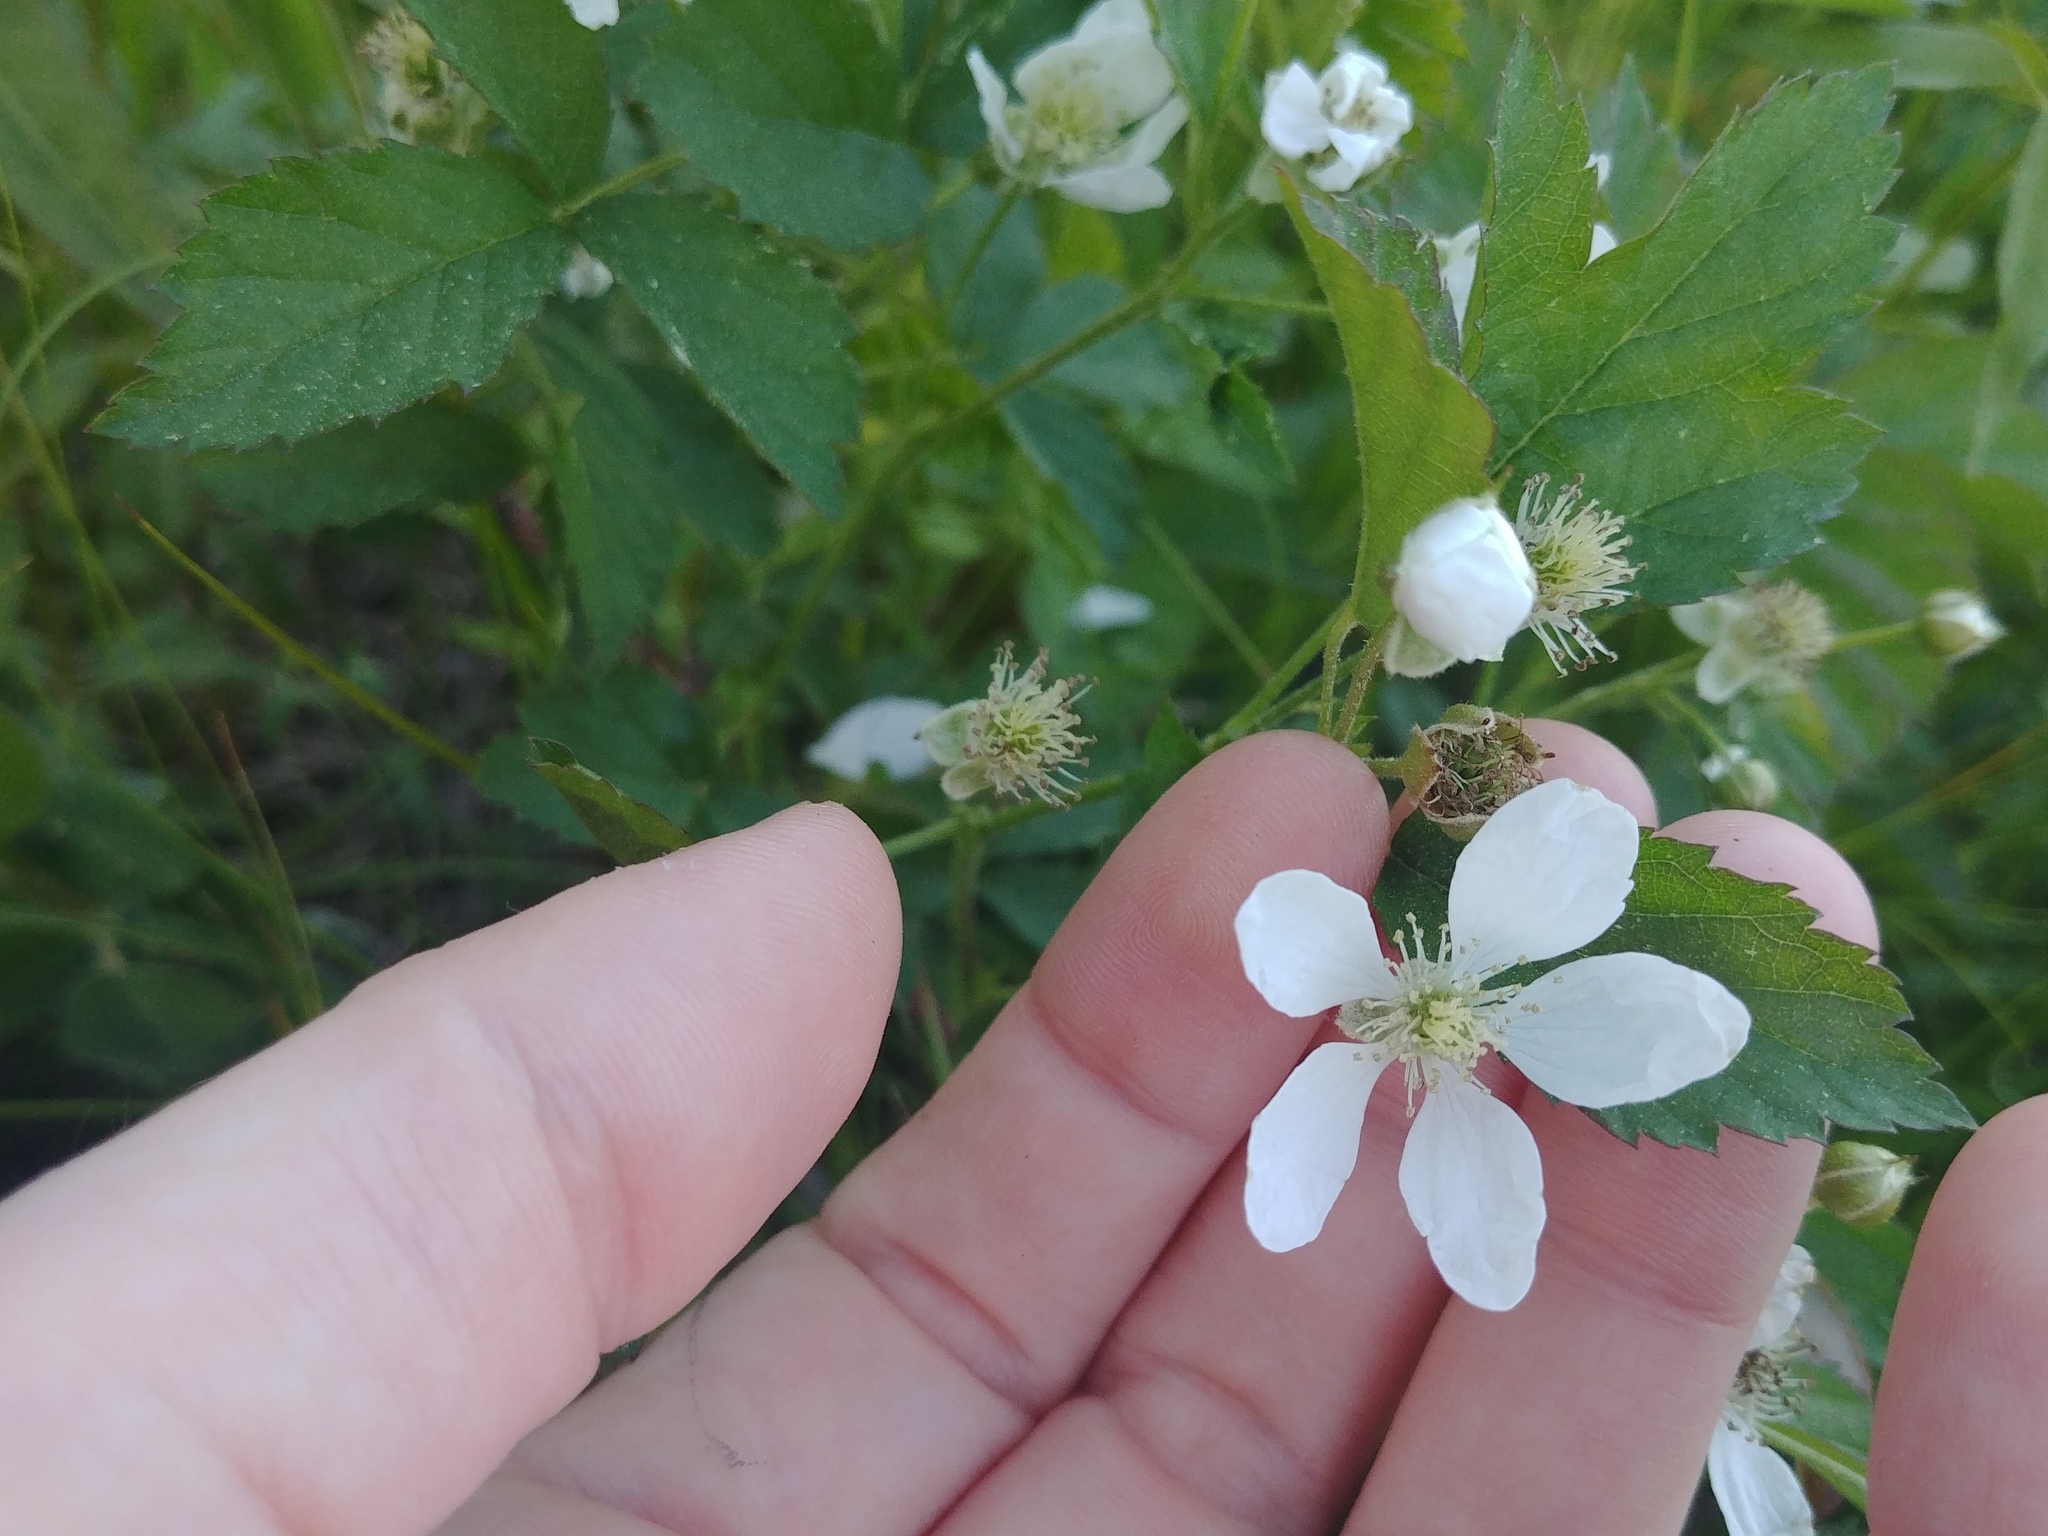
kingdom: Plantae
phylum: Tracheophyta
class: Magnoliopsida
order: Rosales
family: Rosaceae
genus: Rubus
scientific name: Rubus flagellaris
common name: American dewberry
